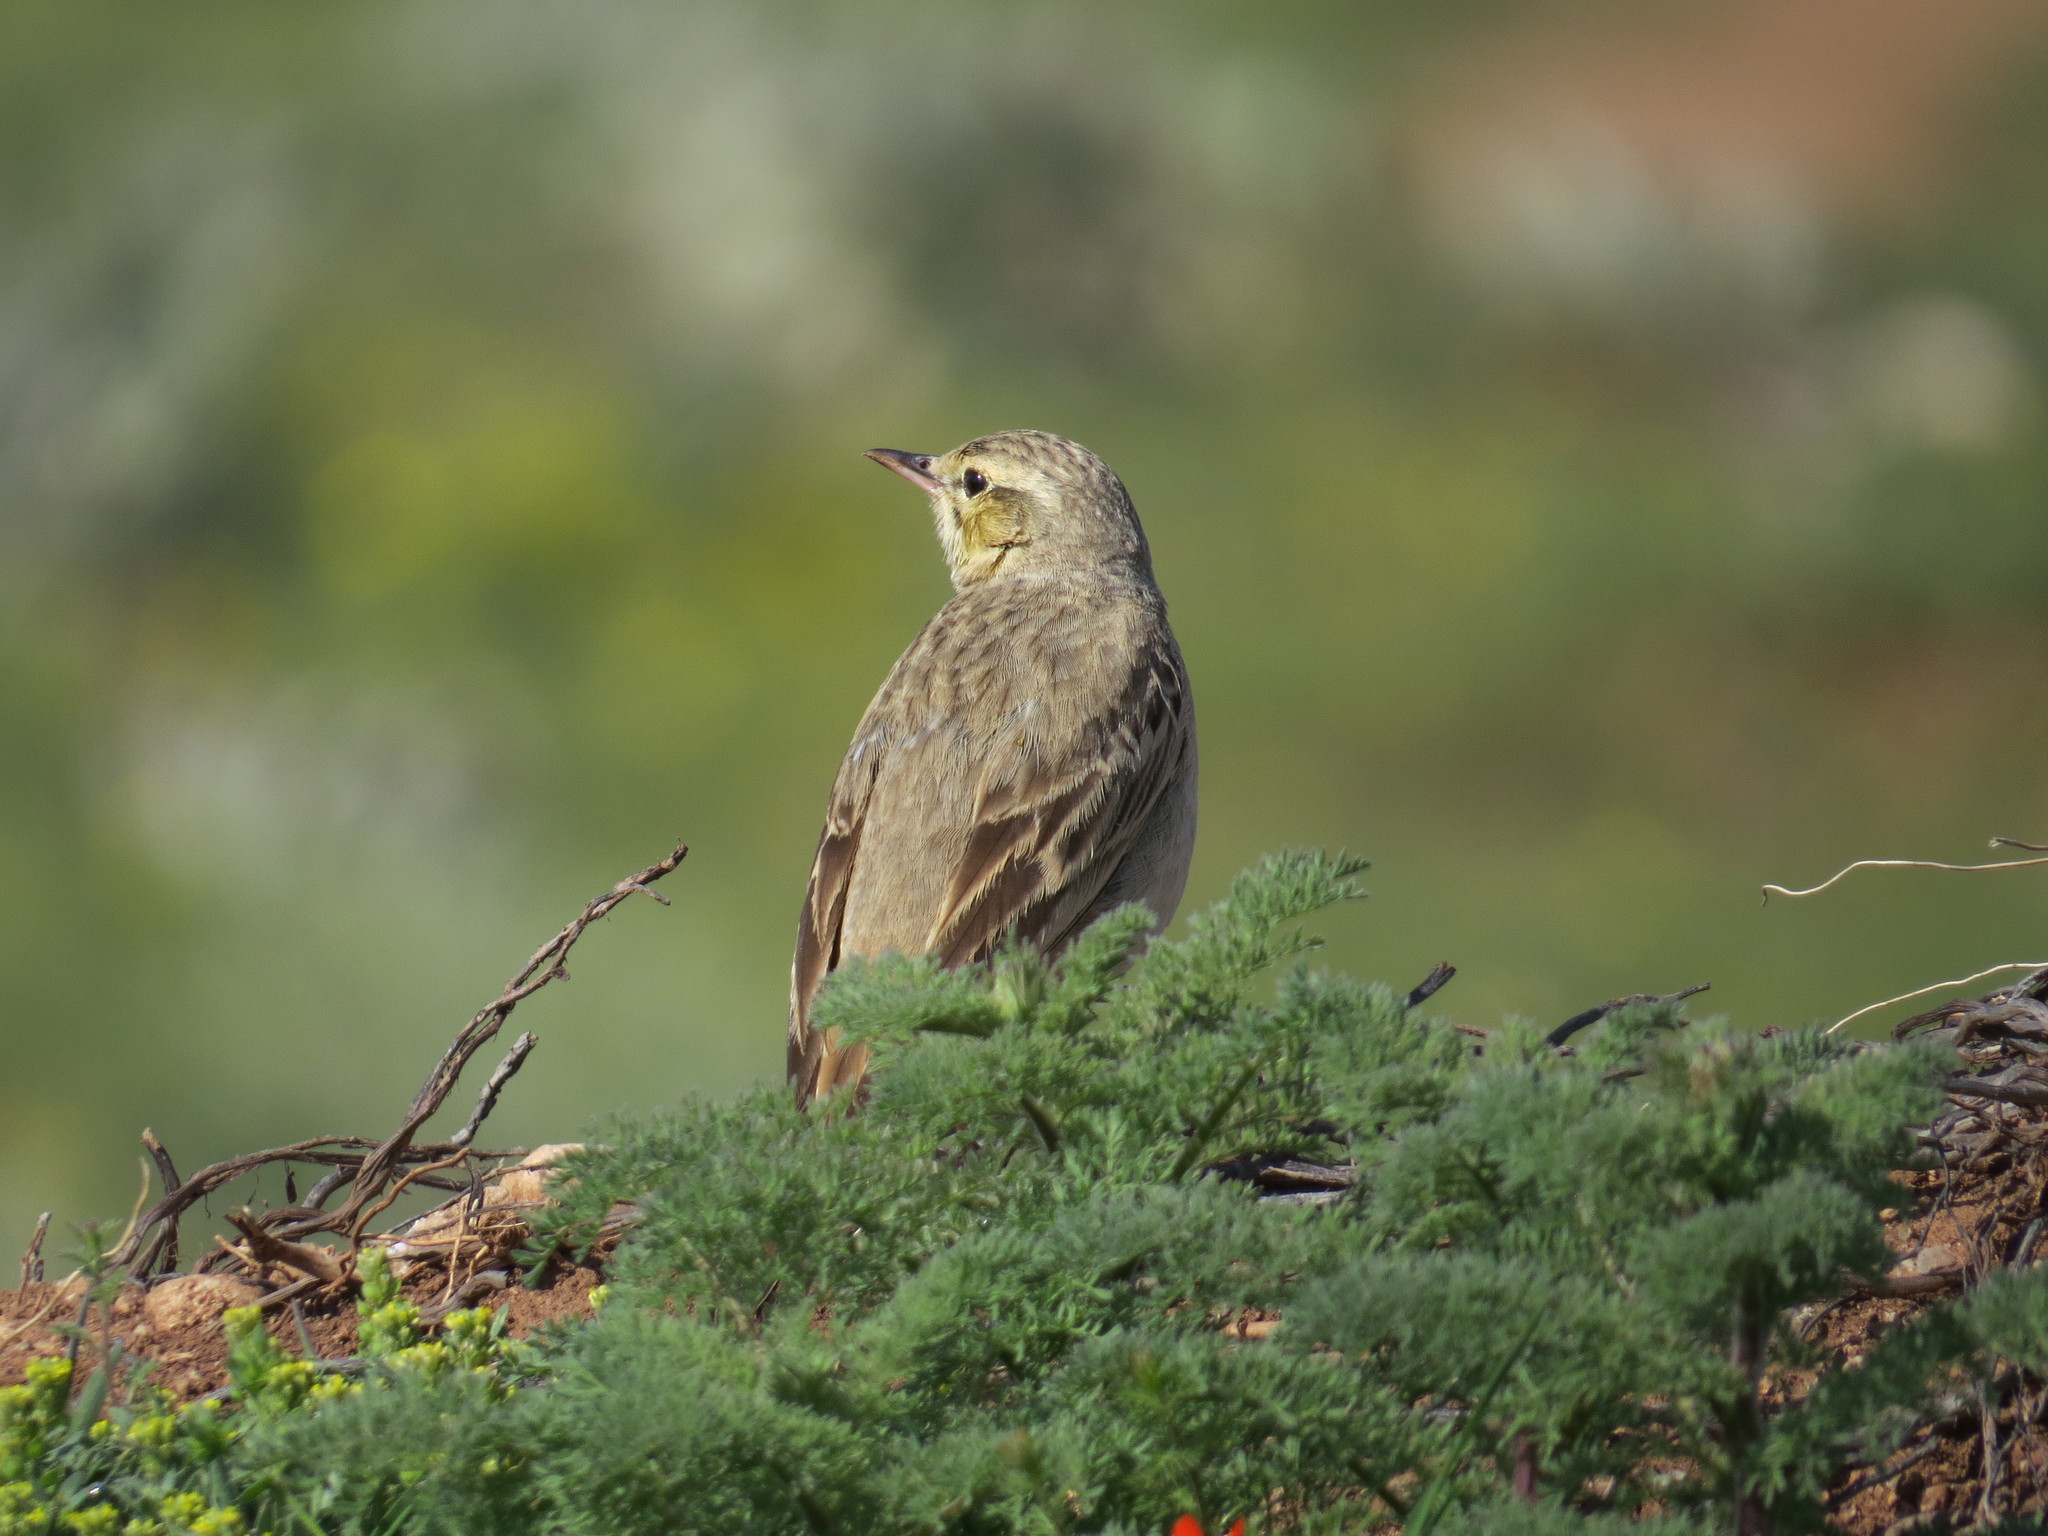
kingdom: Animalia
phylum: Chordata
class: Aves
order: Passeriformes
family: Motacillidae
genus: Anthus
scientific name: Anthus campestris
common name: Tawny pipit
